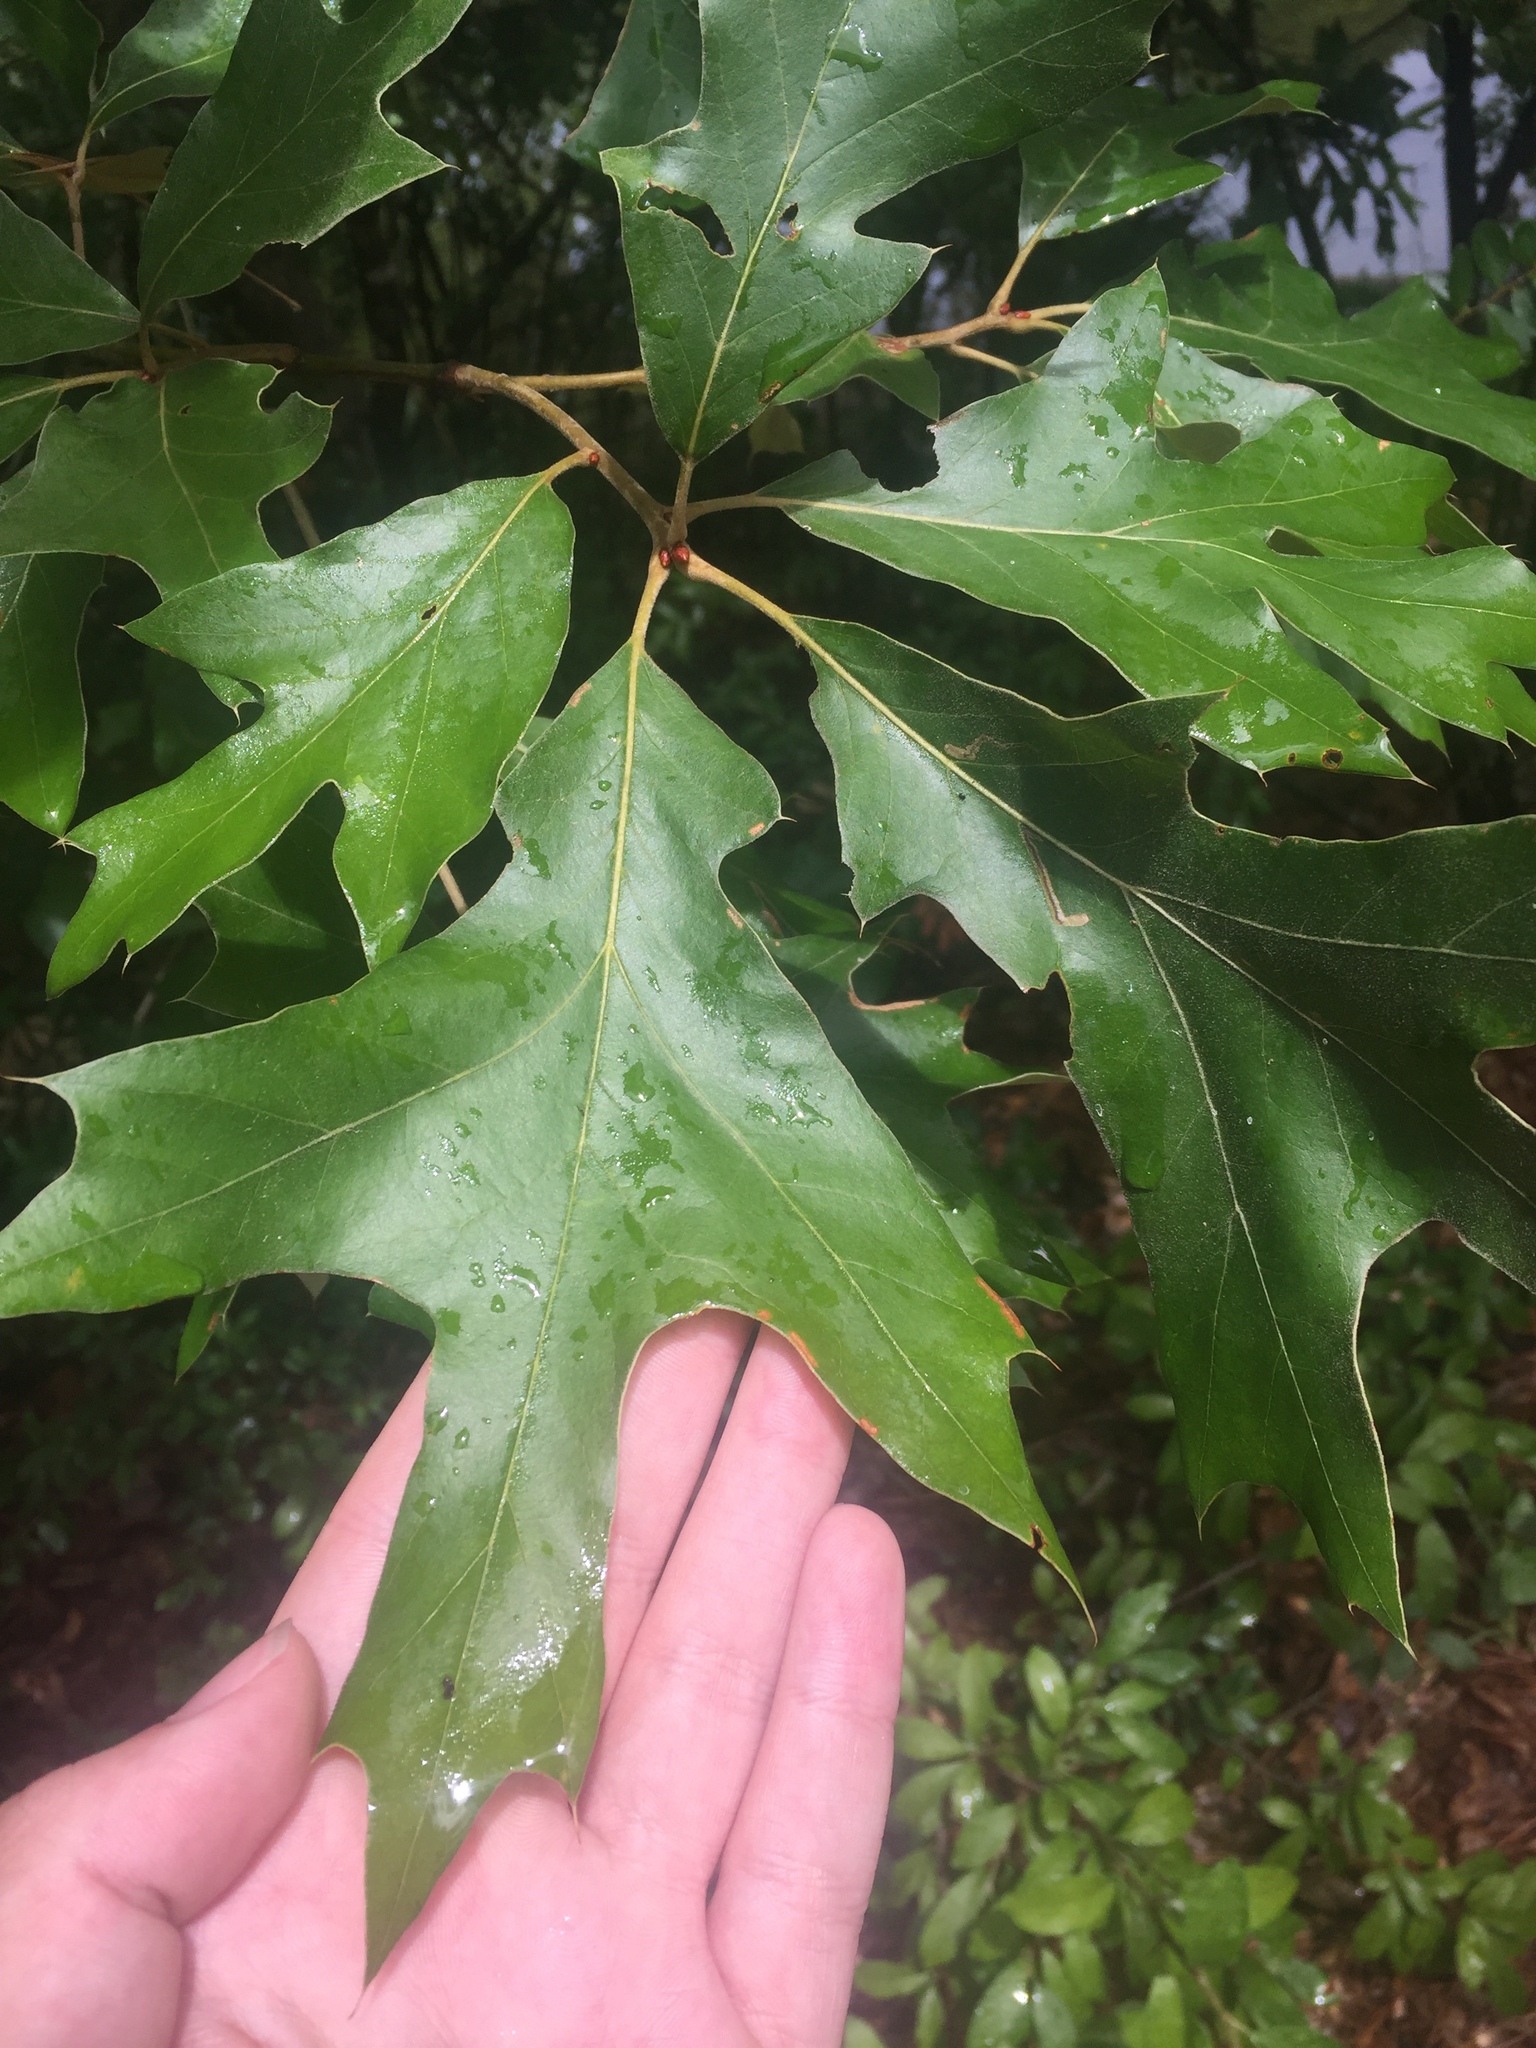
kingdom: Plantae
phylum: Tracheophyta
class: Magnoliopsida
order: Fagales
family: Fagaceae
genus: Quercus
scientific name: Quercus falcata
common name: Southern red oak
